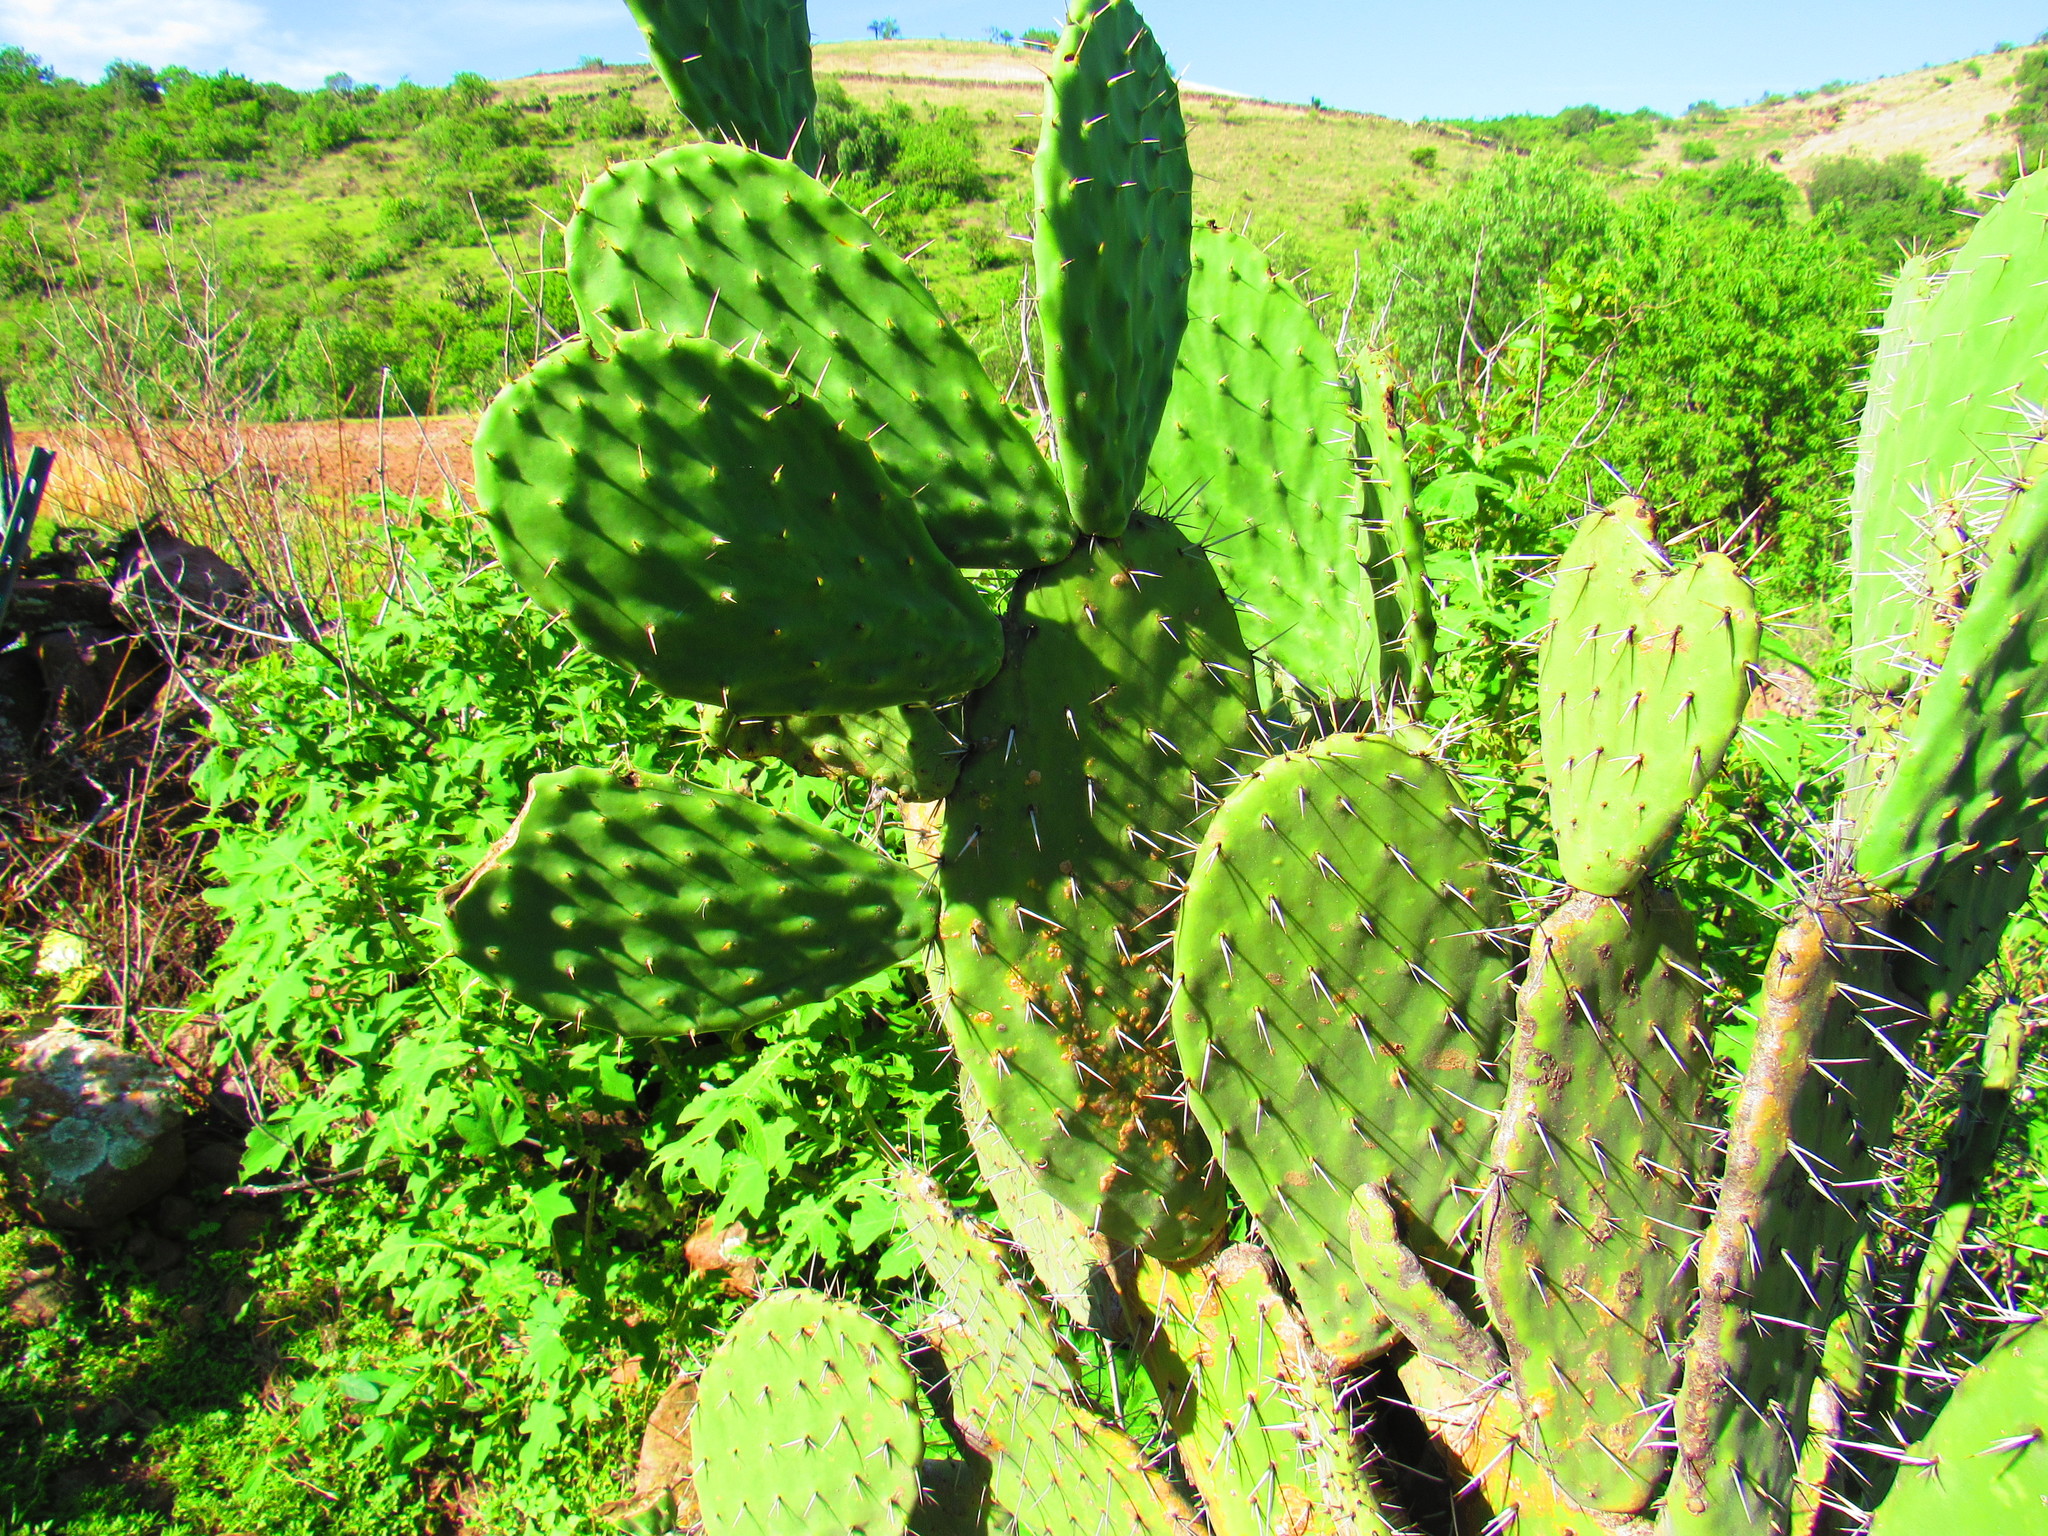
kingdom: Plantae
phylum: Tracheophyta
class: Magnoliopsida
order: Caryophyllales
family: Cactaceae
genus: Opuntia
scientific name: Opuntia lasiacantha
